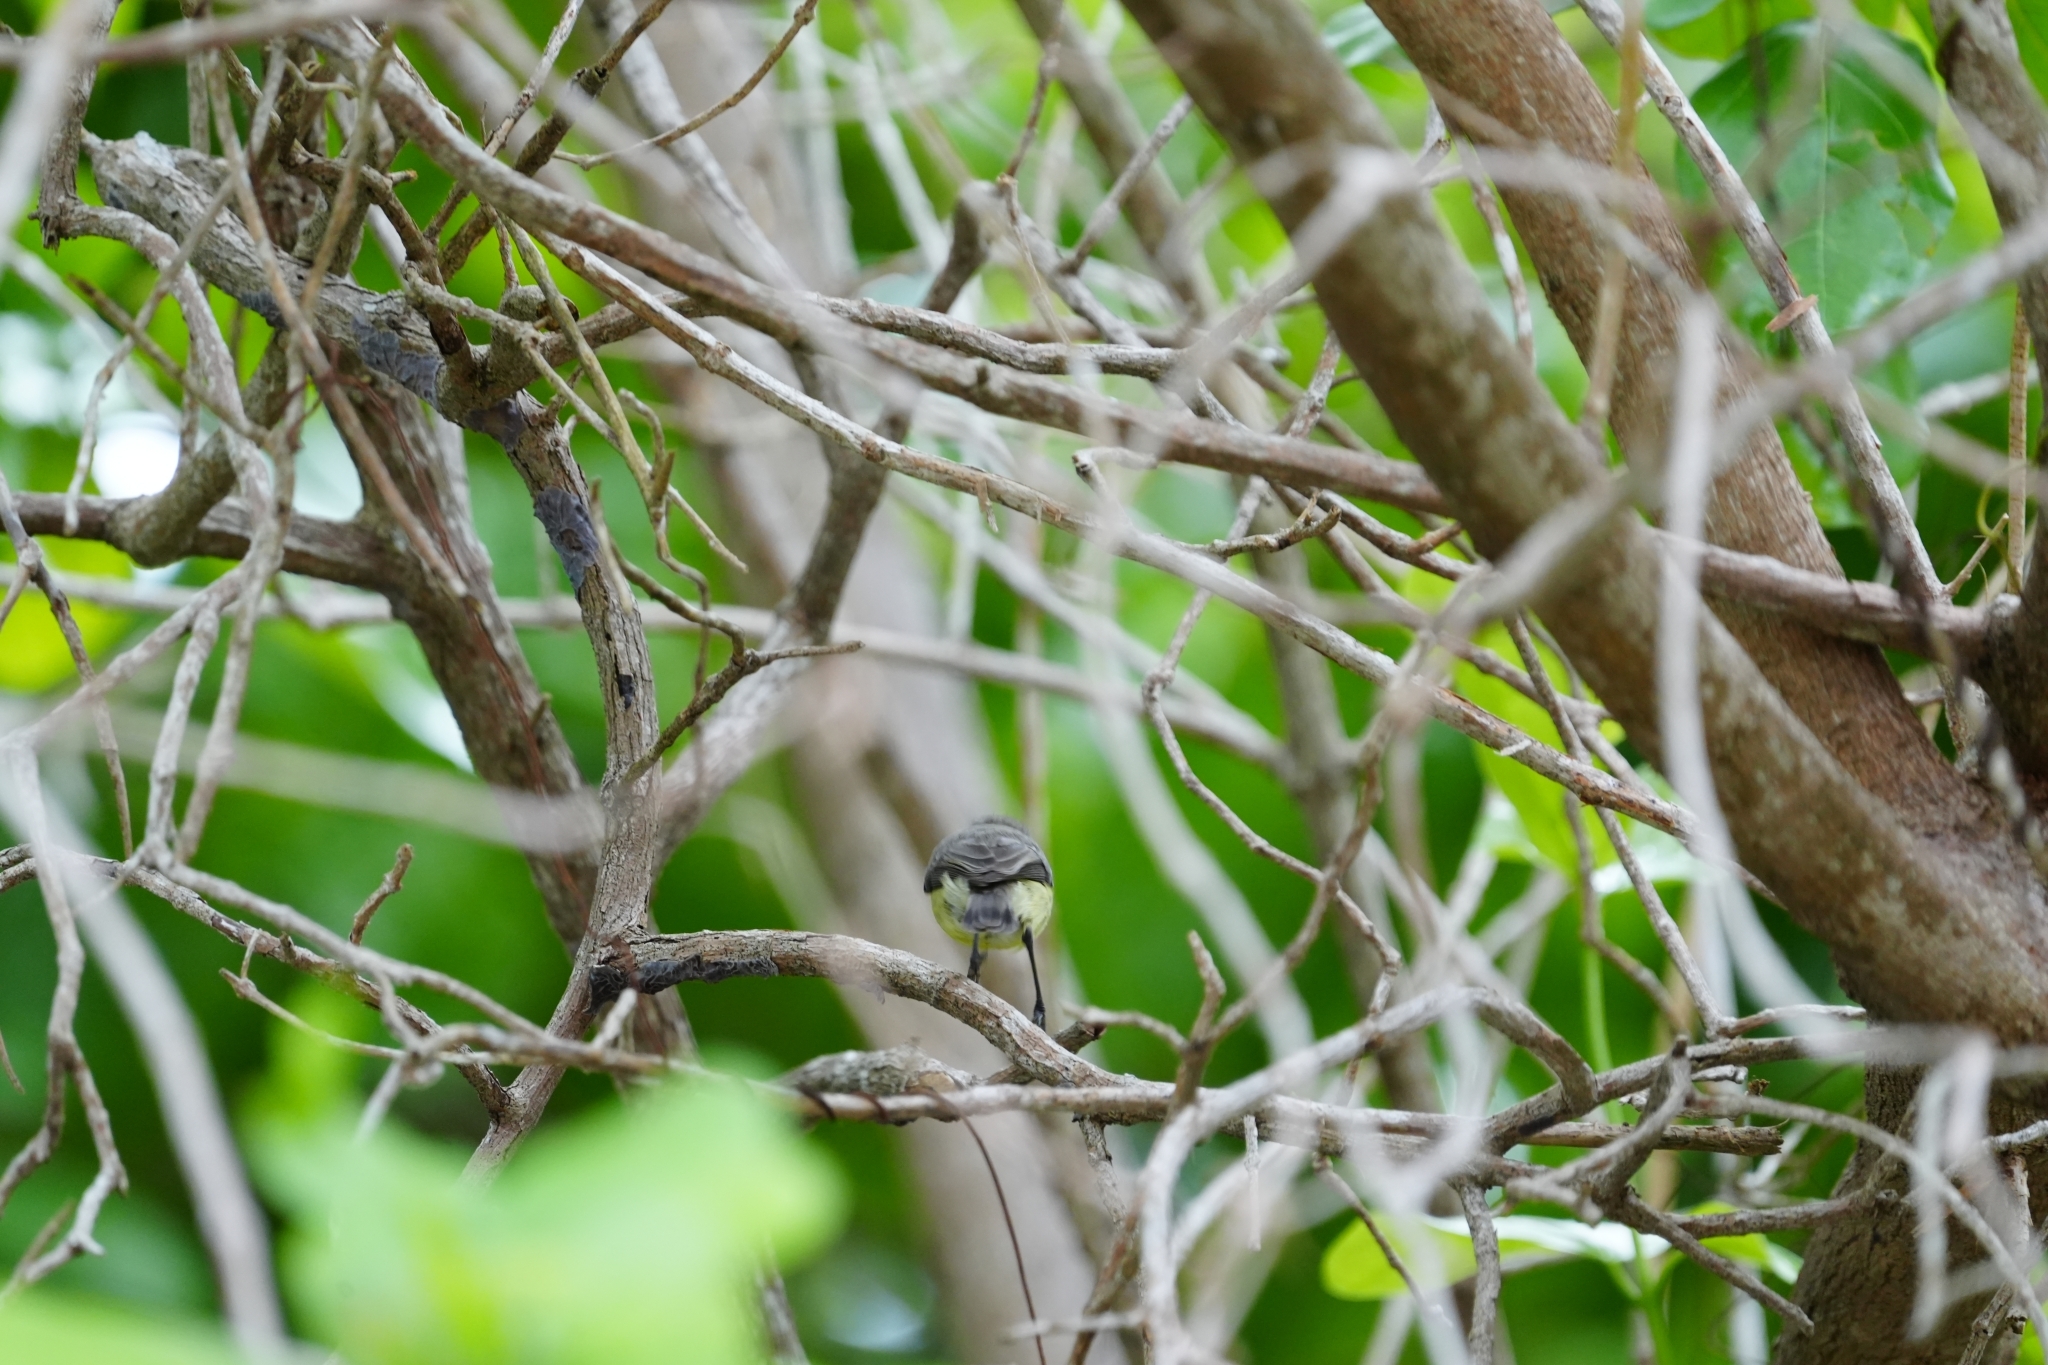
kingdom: Animalia
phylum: Chordata
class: Aves
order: Passeriformes
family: Acanthizidae
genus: Gerygone
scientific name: Gerygone sulphurea
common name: Golden-bellied gerygone
